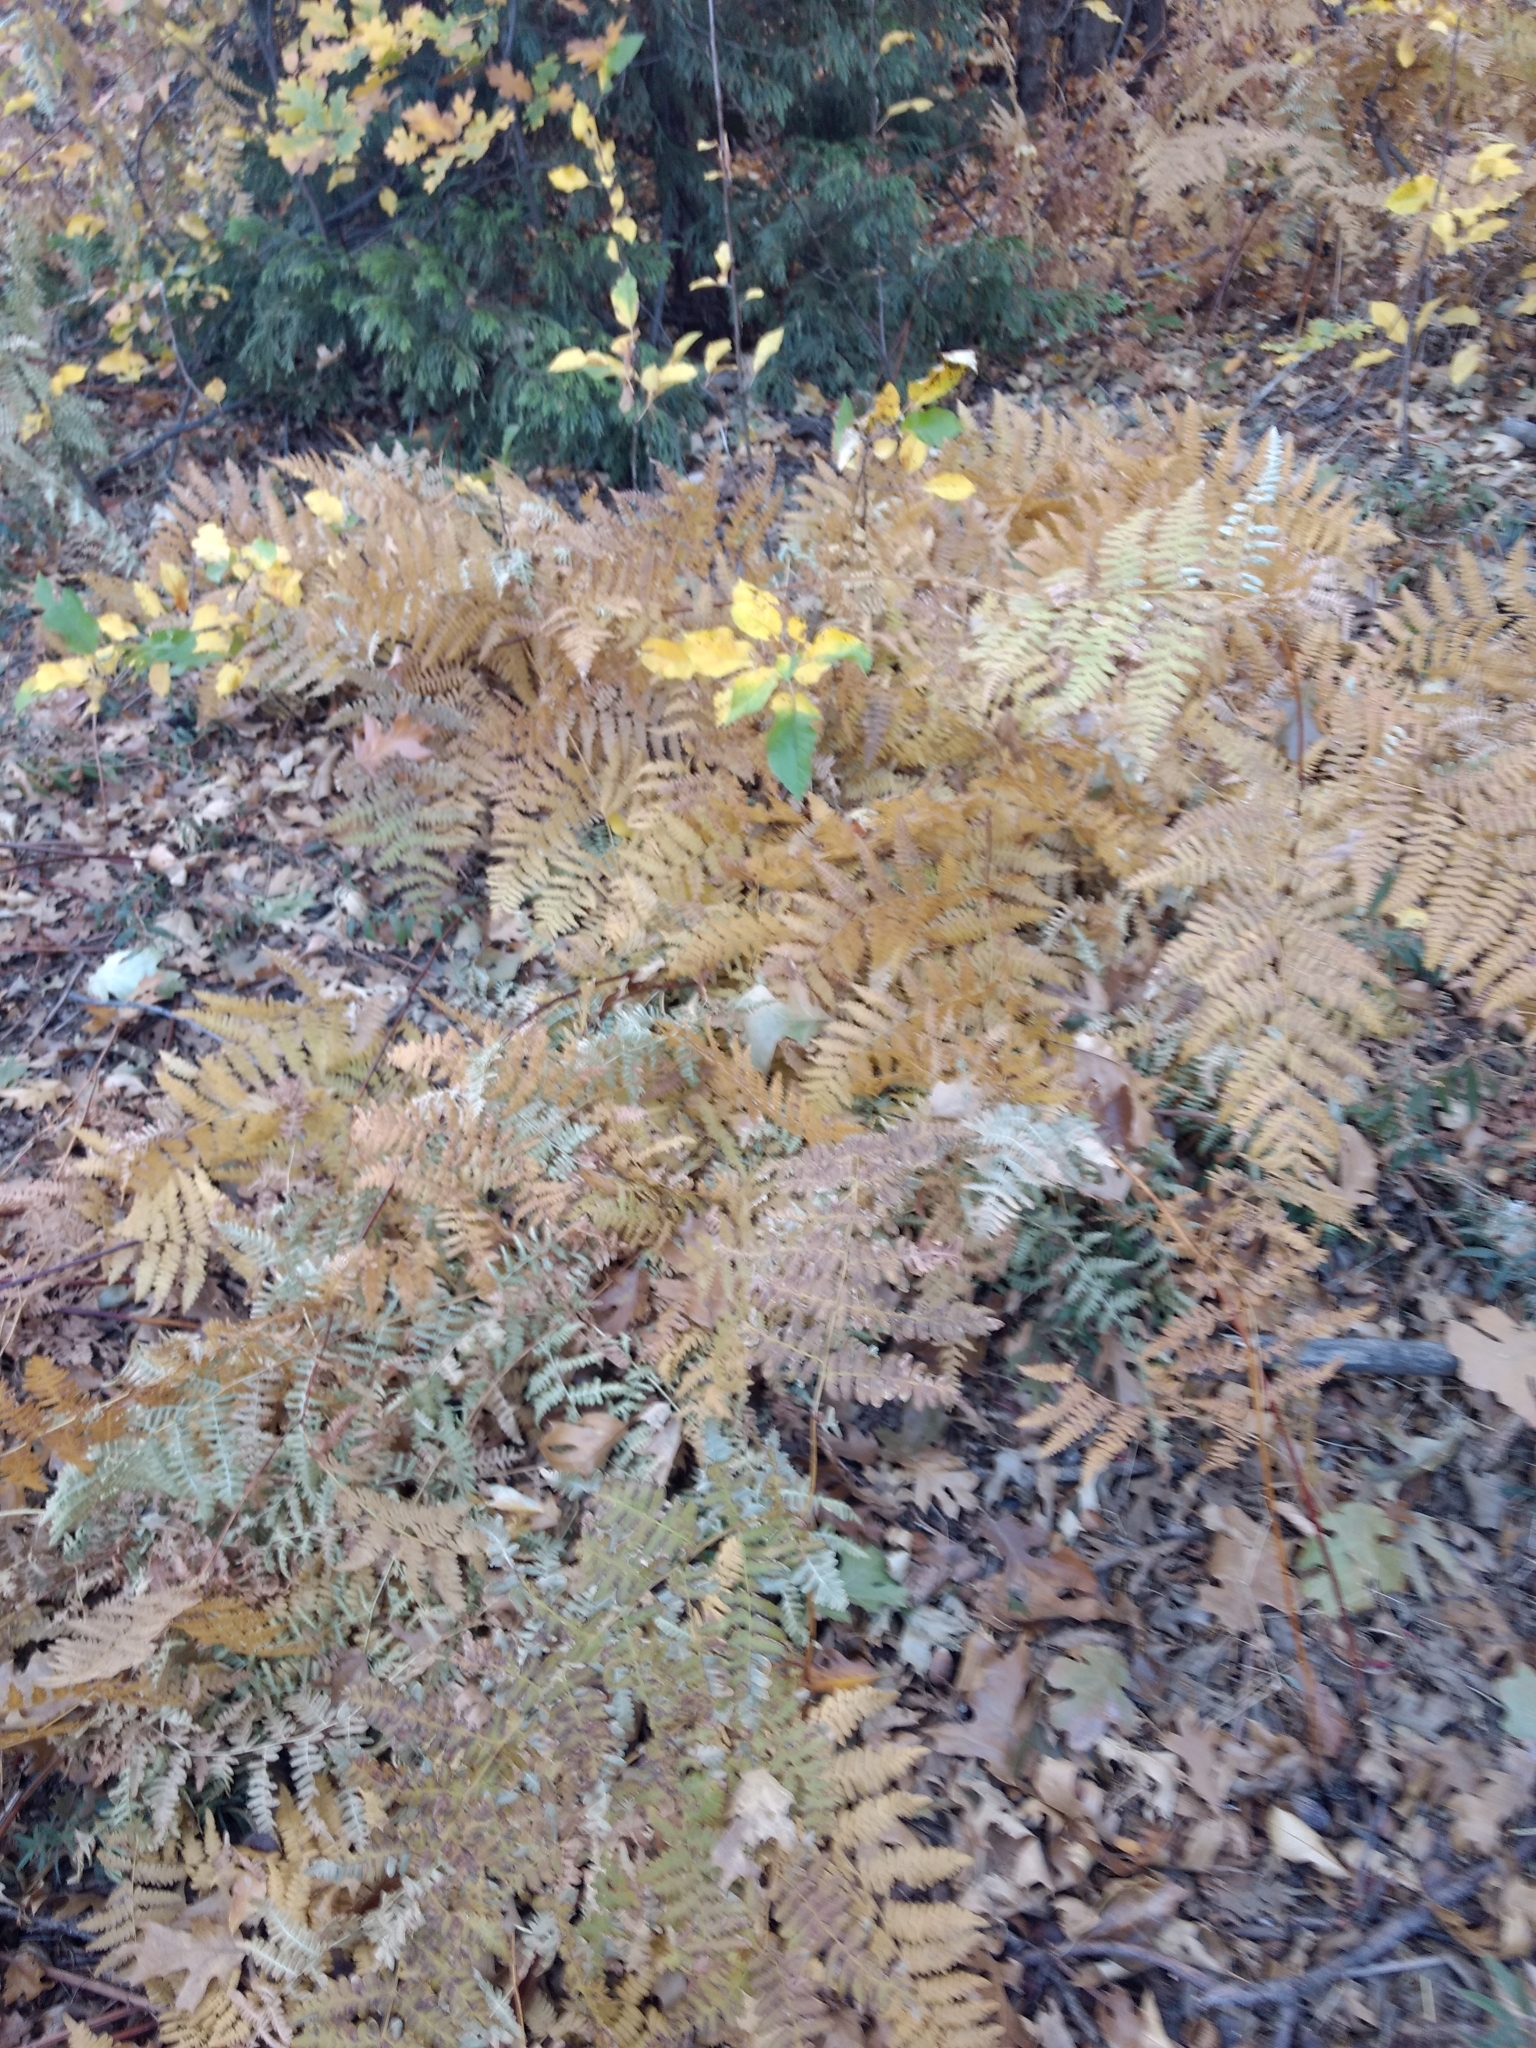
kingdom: Plantae
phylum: Tracheophyta
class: Polypodiopsida
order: Polypodiales
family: Dennstaedtiaceae
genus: Pteridium
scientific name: Pteridium aquilinum
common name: Bracken
